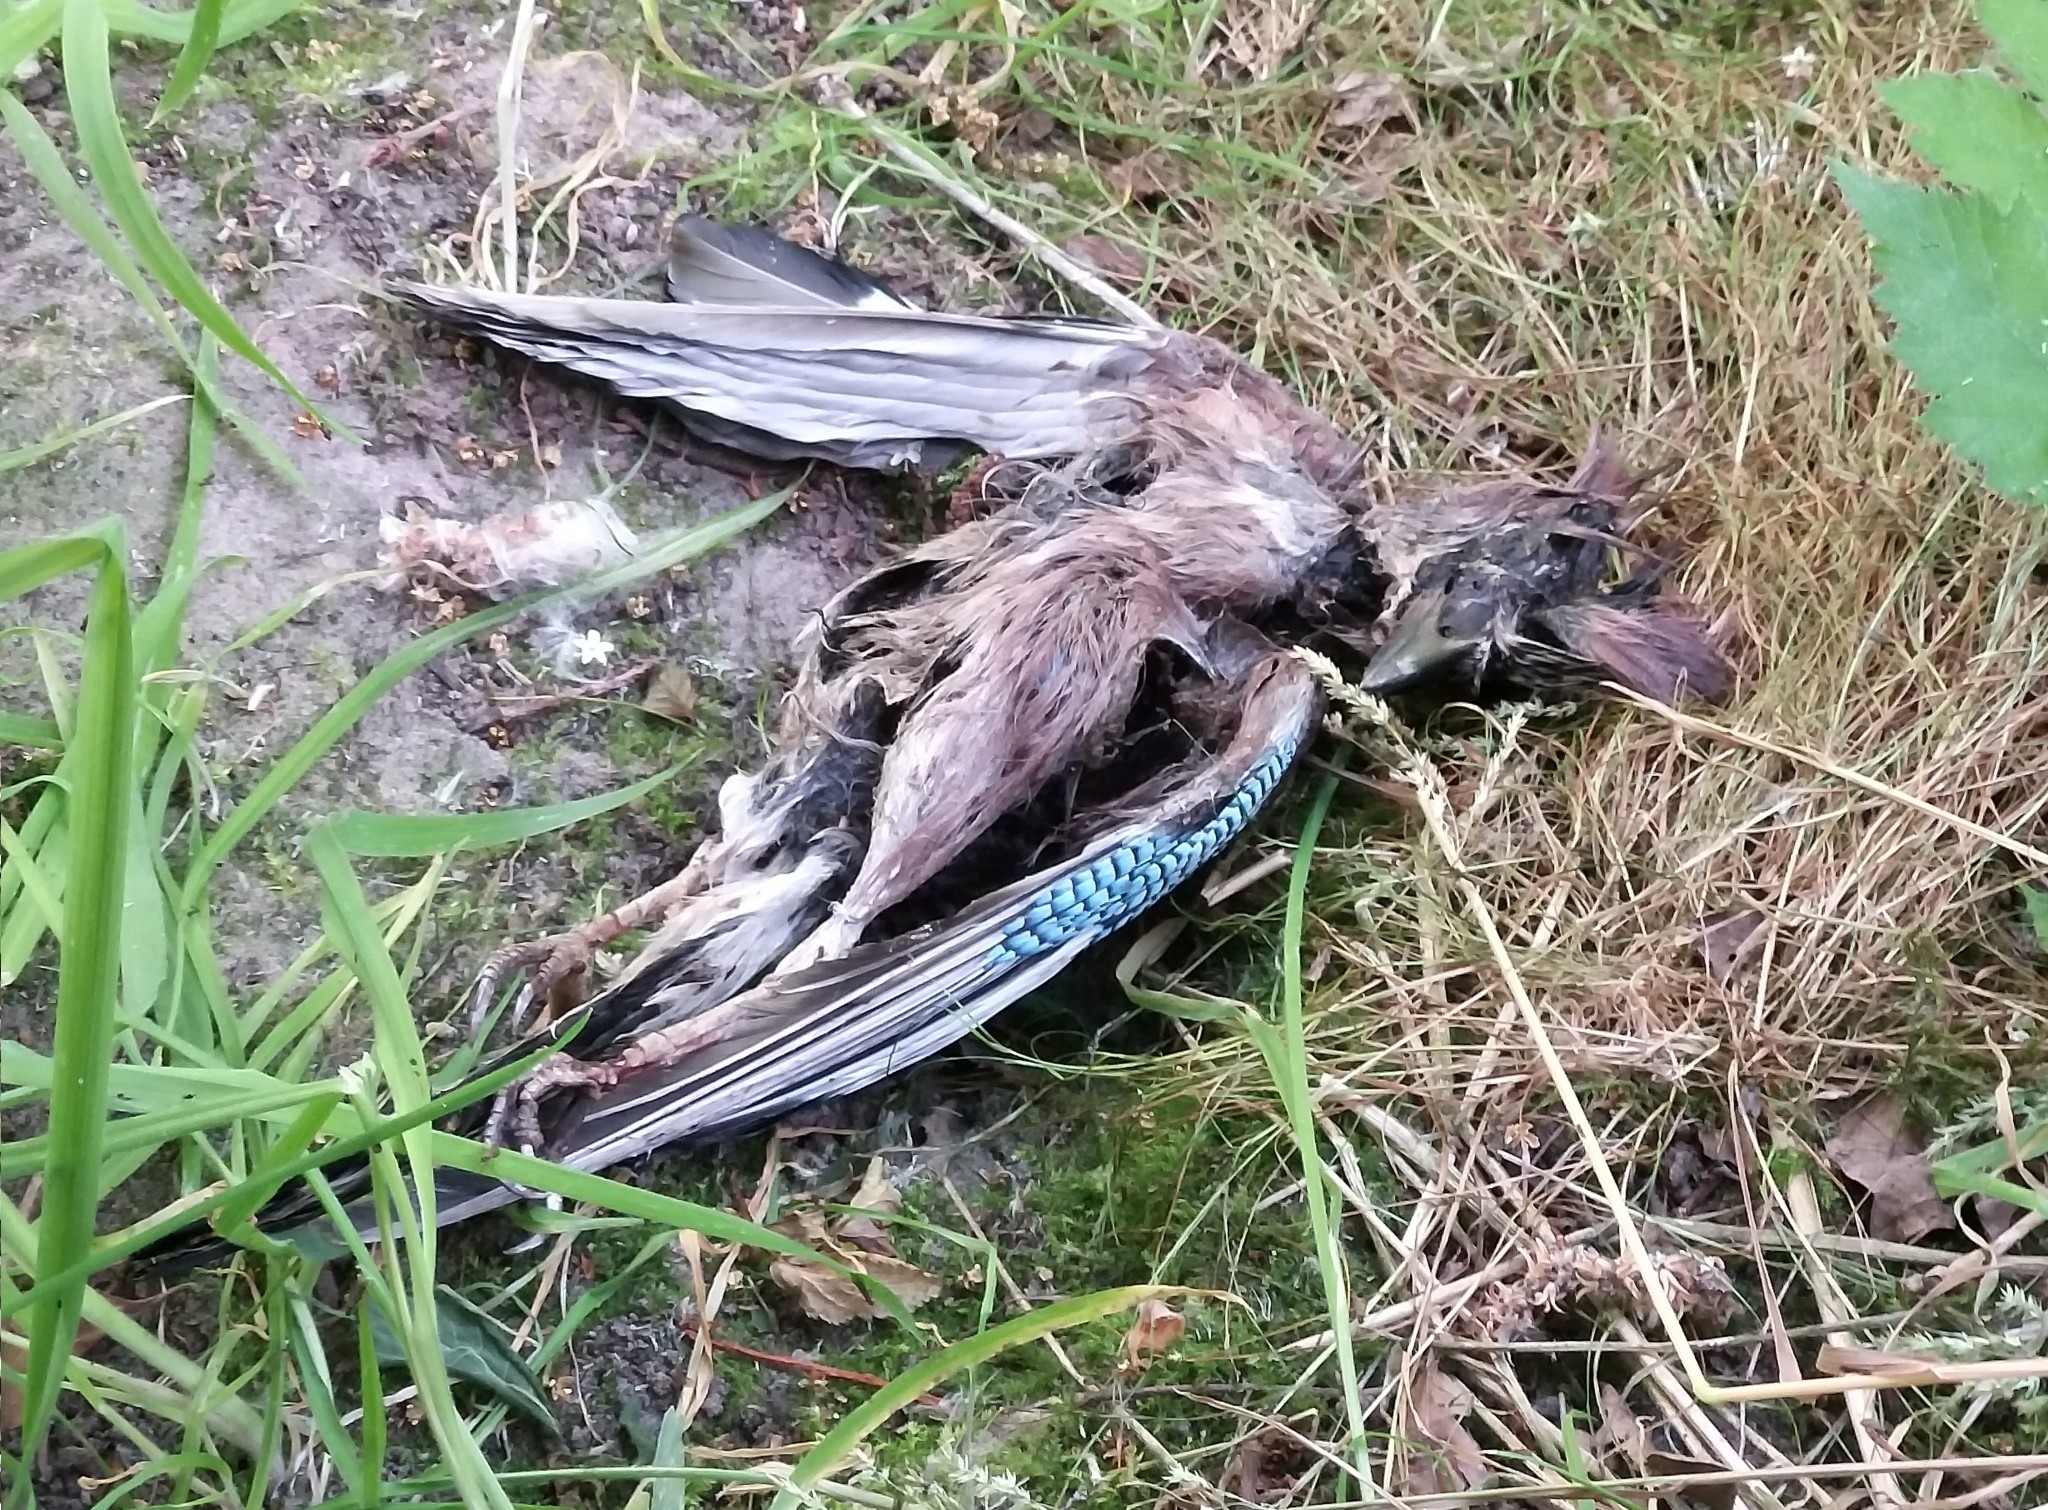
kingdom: Animalia
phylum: Chordata
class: Aves
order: Passeriformes
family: Corvidae
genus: Garrulus
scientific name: Garrulus glandarius
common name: Eurasian jay
